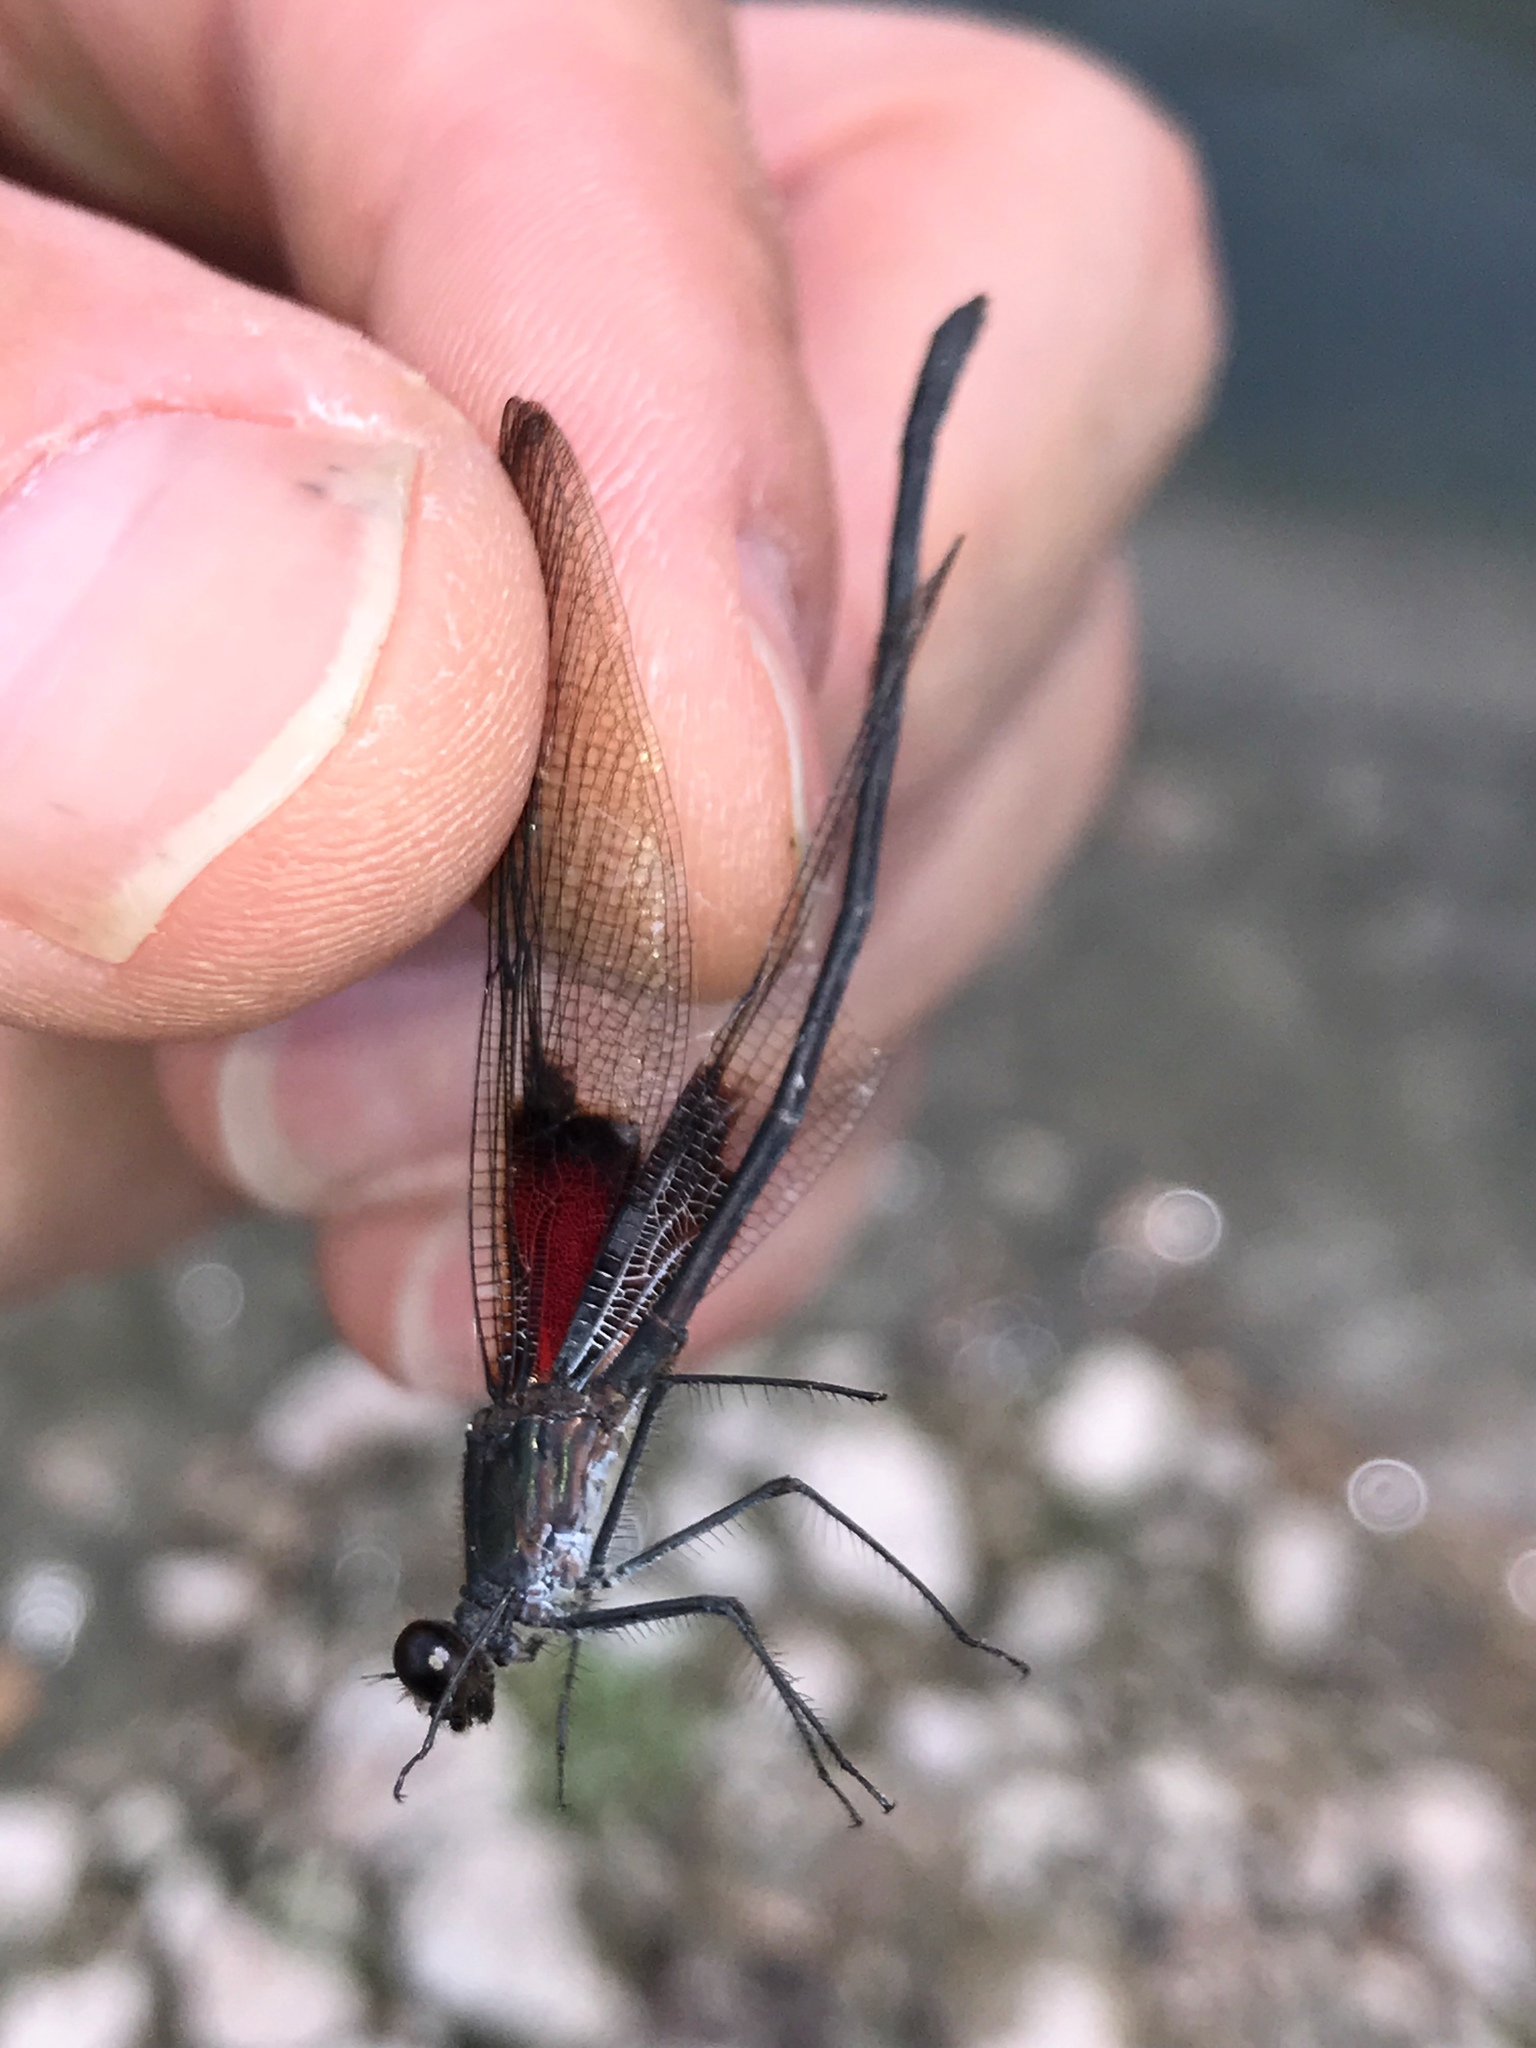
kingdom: Animalia
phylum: Arthropoda
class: Insecta
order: Odonata
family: Calopterygidae
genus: Hetaerina
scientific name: Hetaerina titia
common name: Smoky rubyspot
